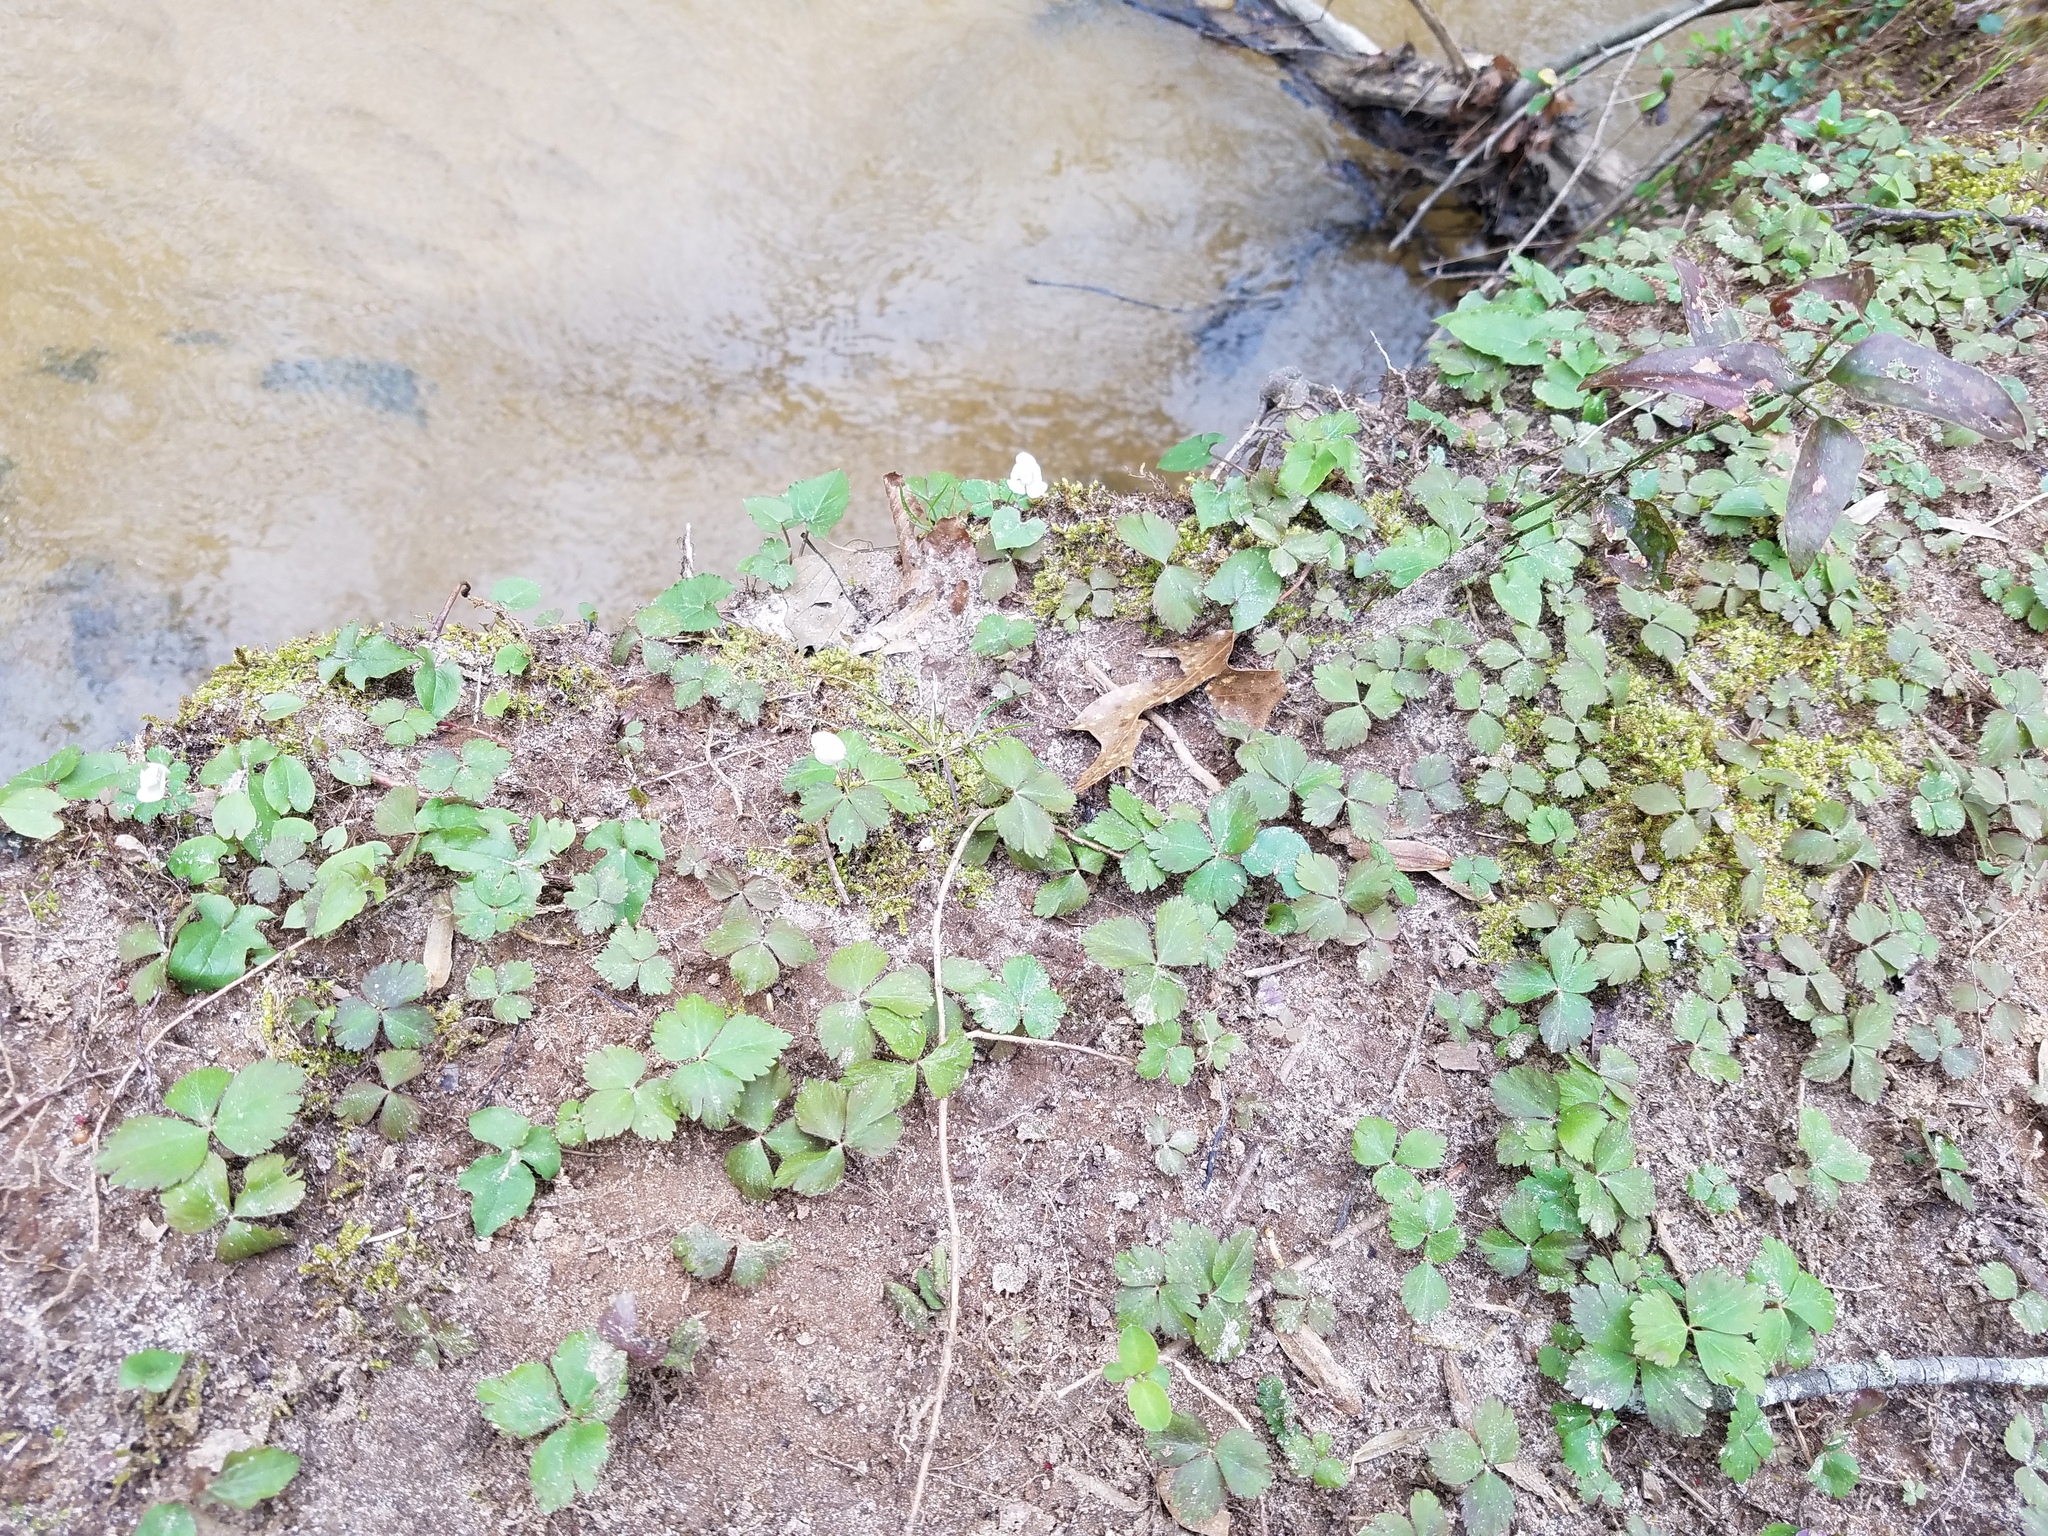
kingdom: Plantae
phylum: Tracheophyta
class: Magnoliopsida
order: Ranunculales
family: Ranunculaceae
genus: Anemone
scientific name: Anemone quinquefolia
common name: Wood anemone
